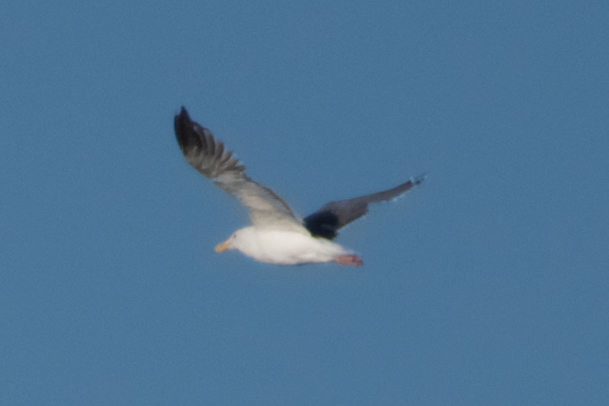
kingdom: Animalia
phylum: Chordata
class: Aves
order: Charadriiformes
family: Laridae
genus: Larus
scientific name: Larus occidentalis
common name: Western gull
